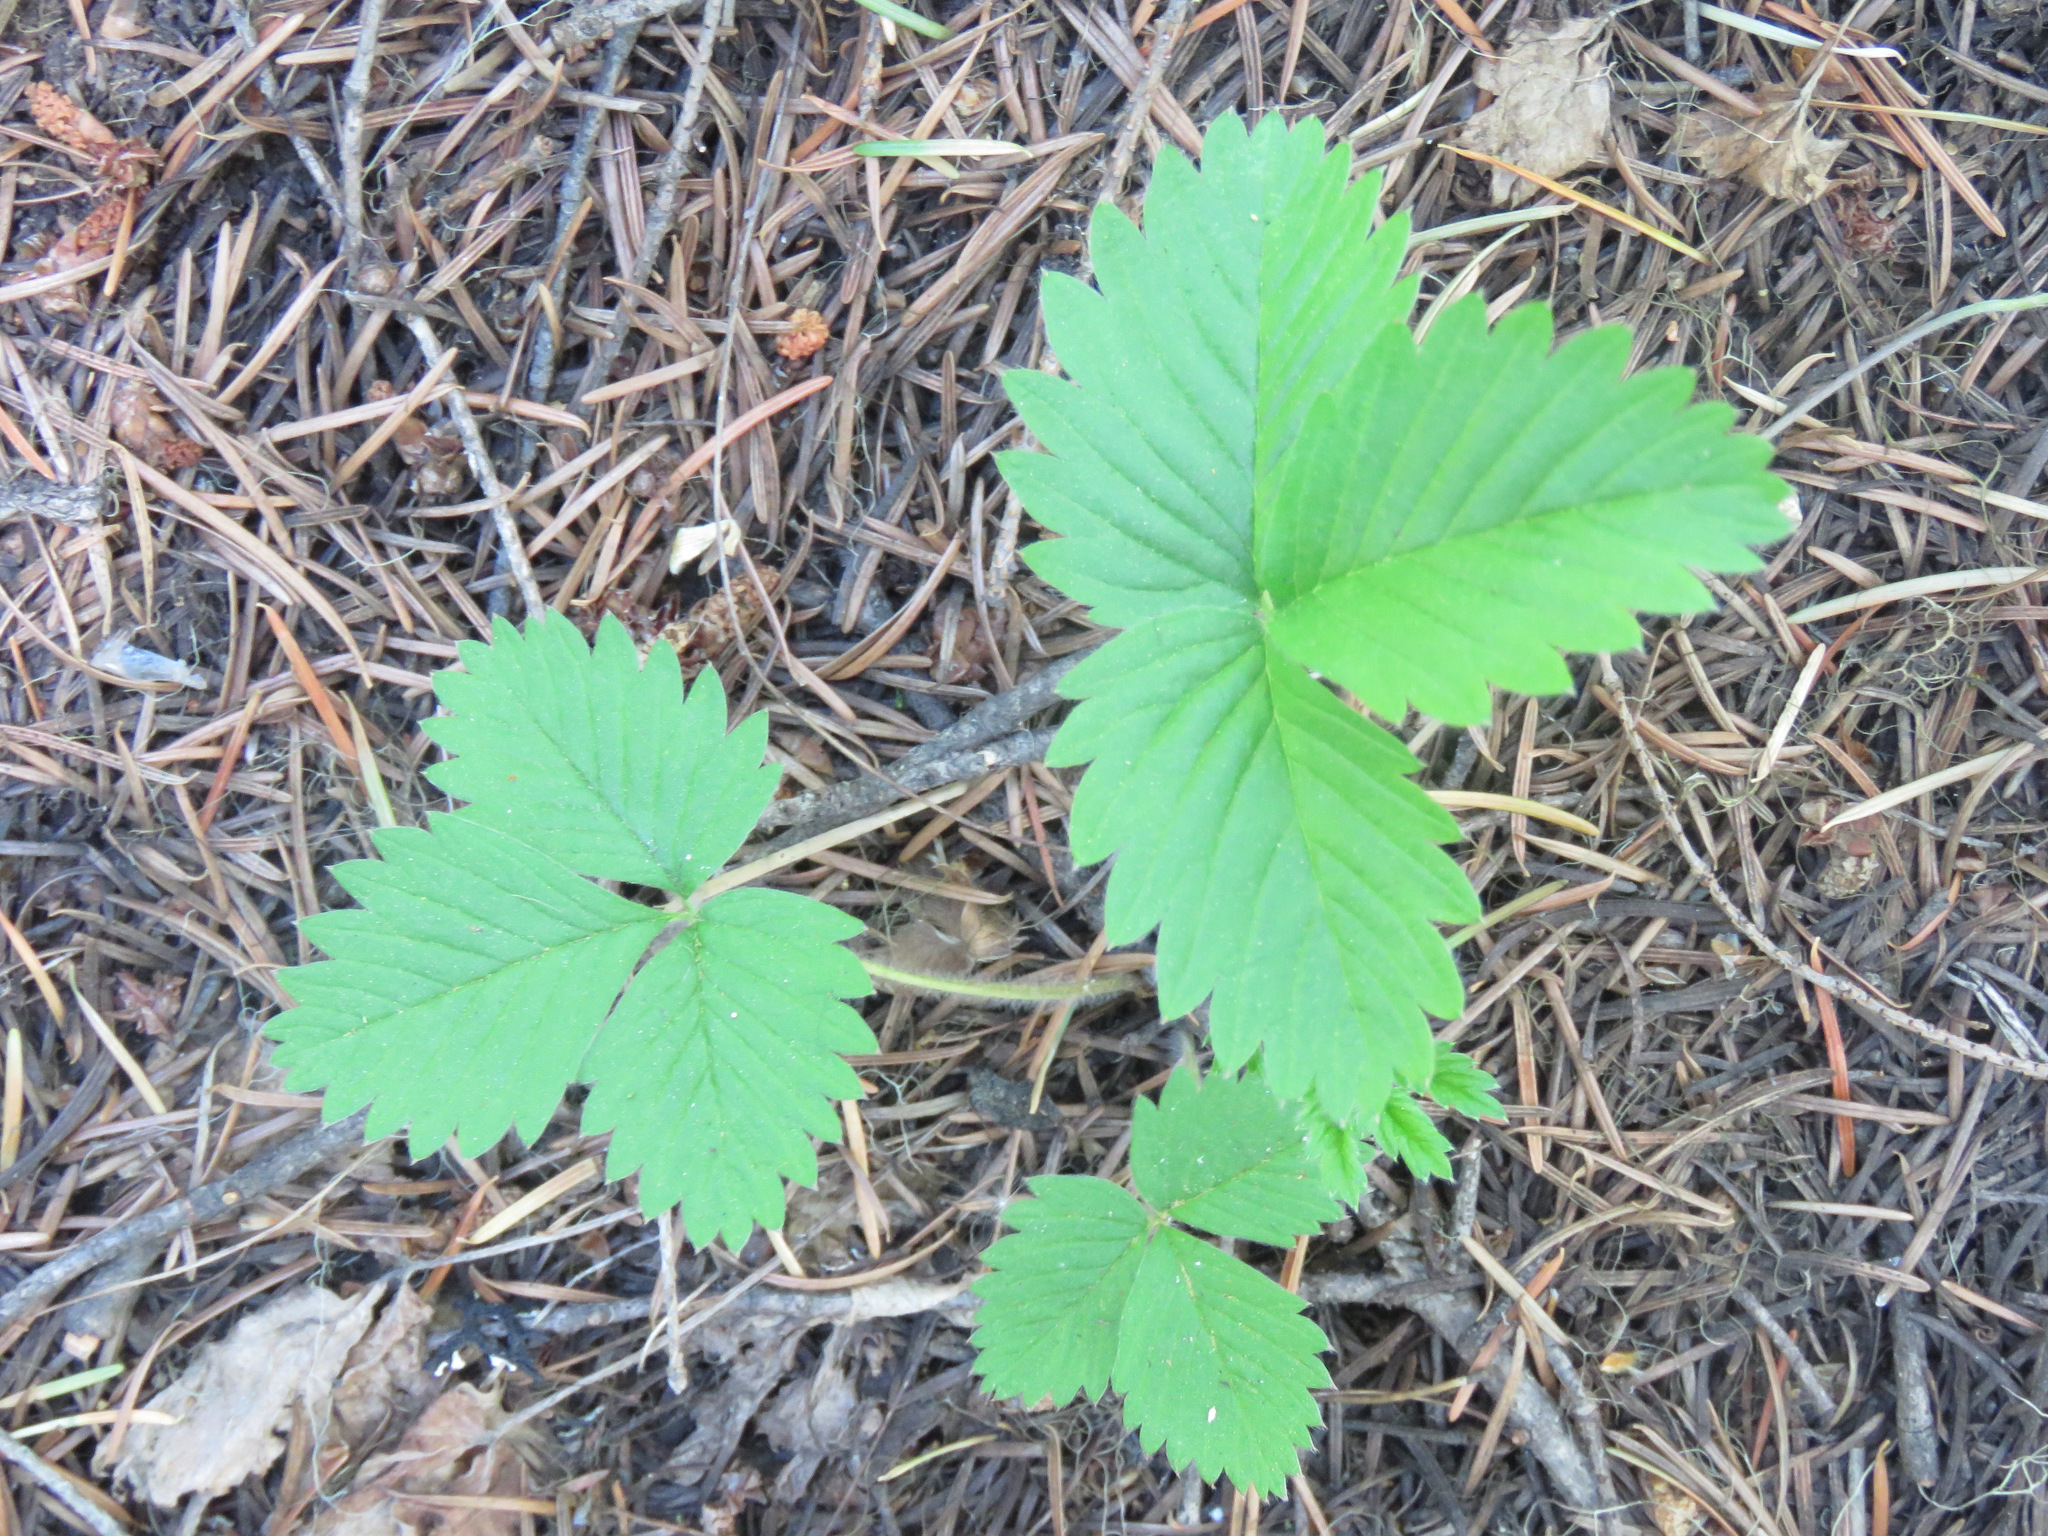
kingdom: Plantae
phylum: Tracheophyta
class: Magnoliopsida
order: Rosales
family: Rosaceae
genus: Fragaria
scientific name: Fragaria vesca
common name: Wild strawberry
